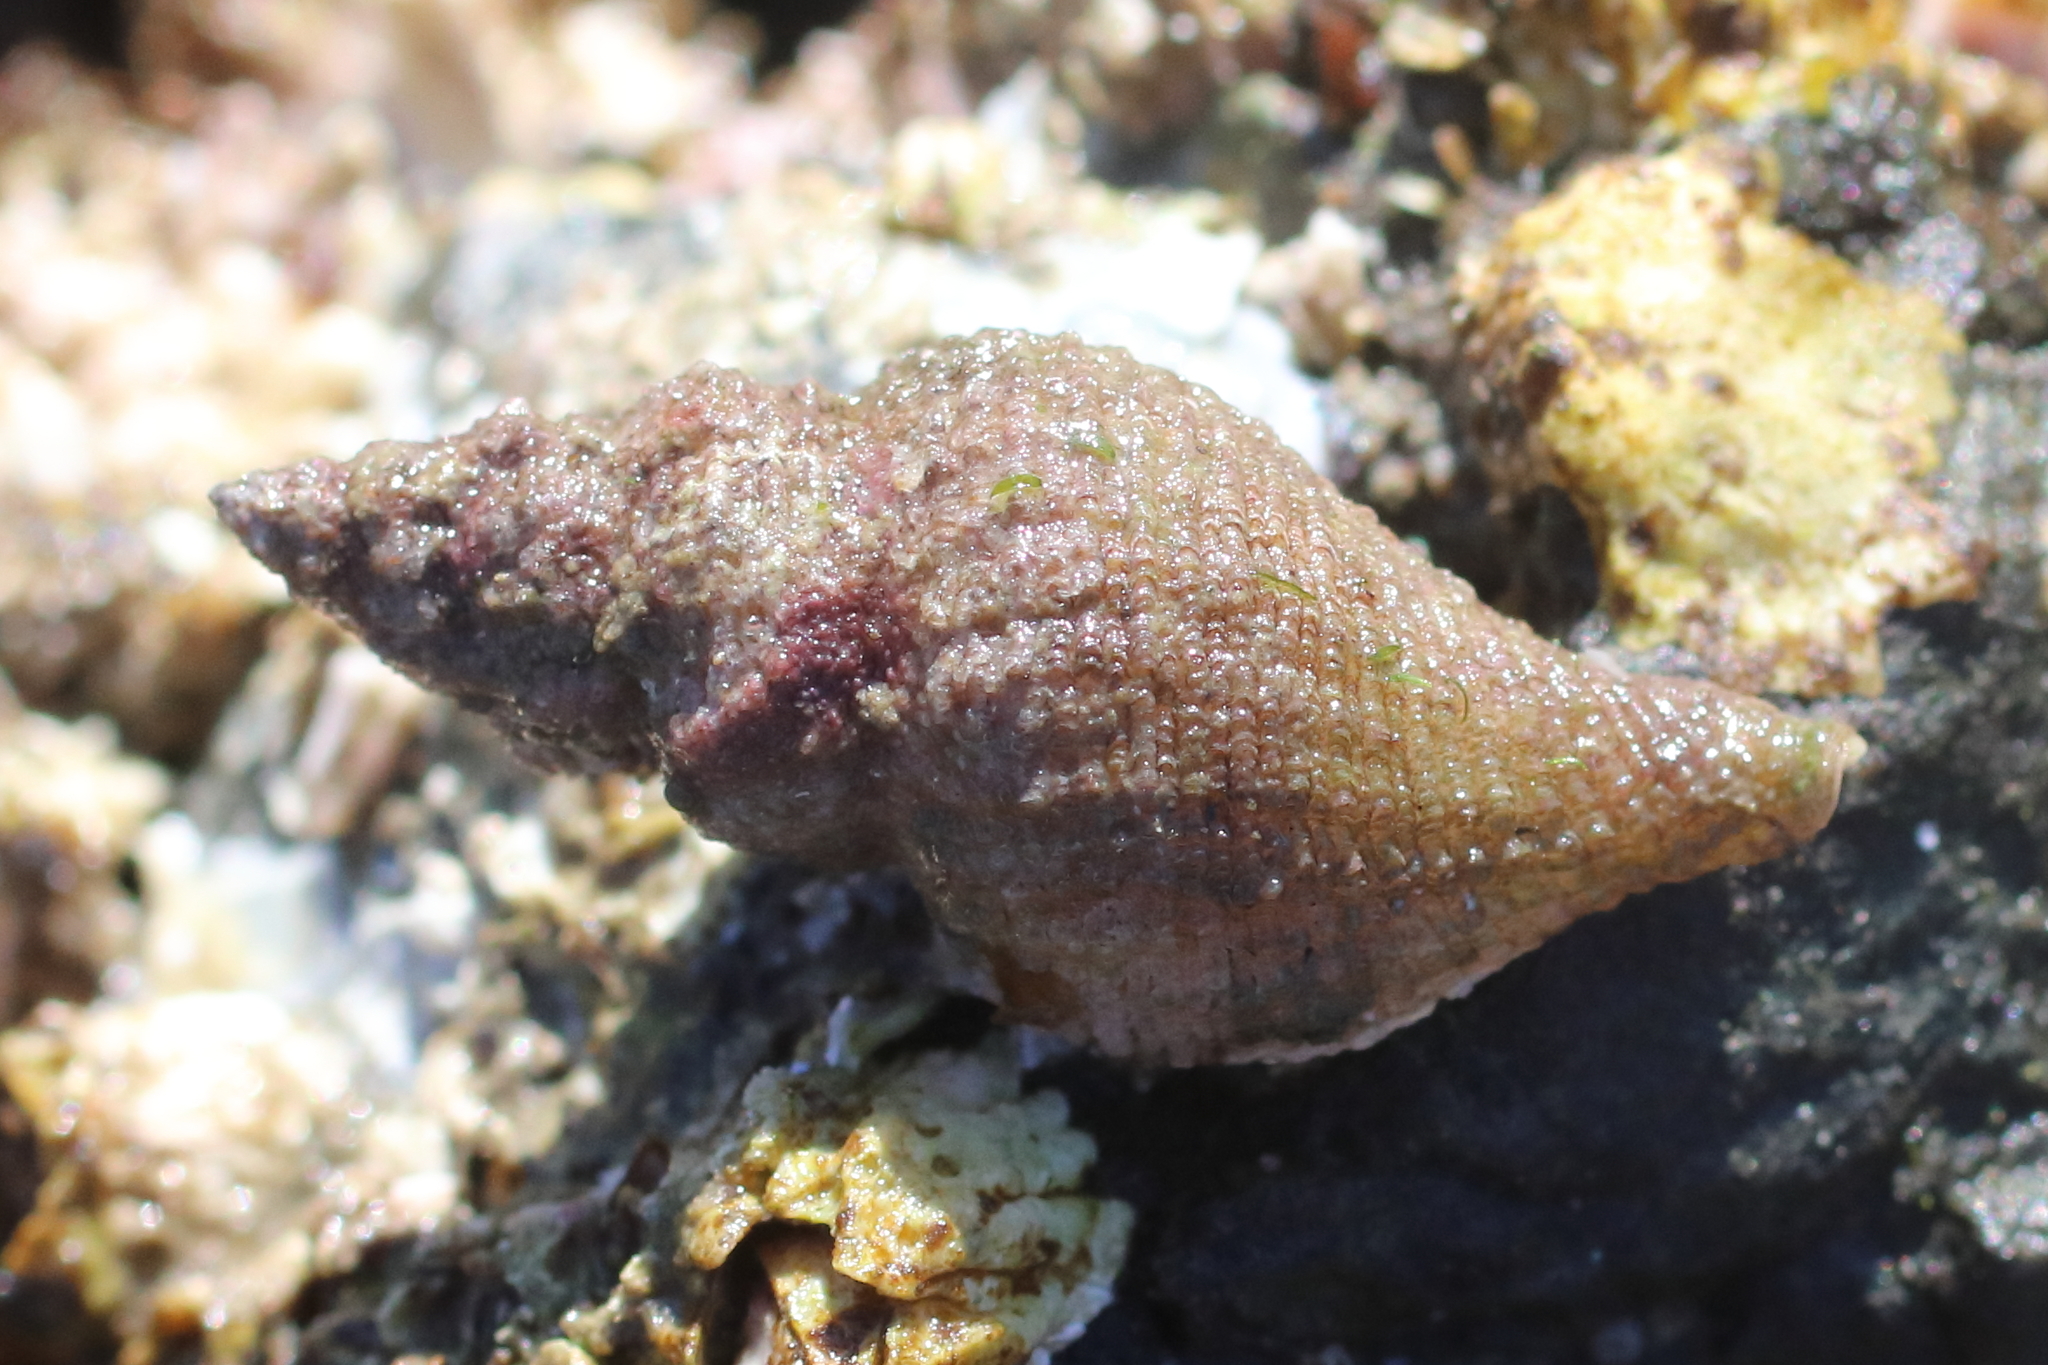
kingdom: Animalia
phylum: Mollusca
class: Gastropoda
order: Neogastropoda
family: Muricidae
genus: Scabrotrophon
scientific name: Scabrotrophon maltzani
